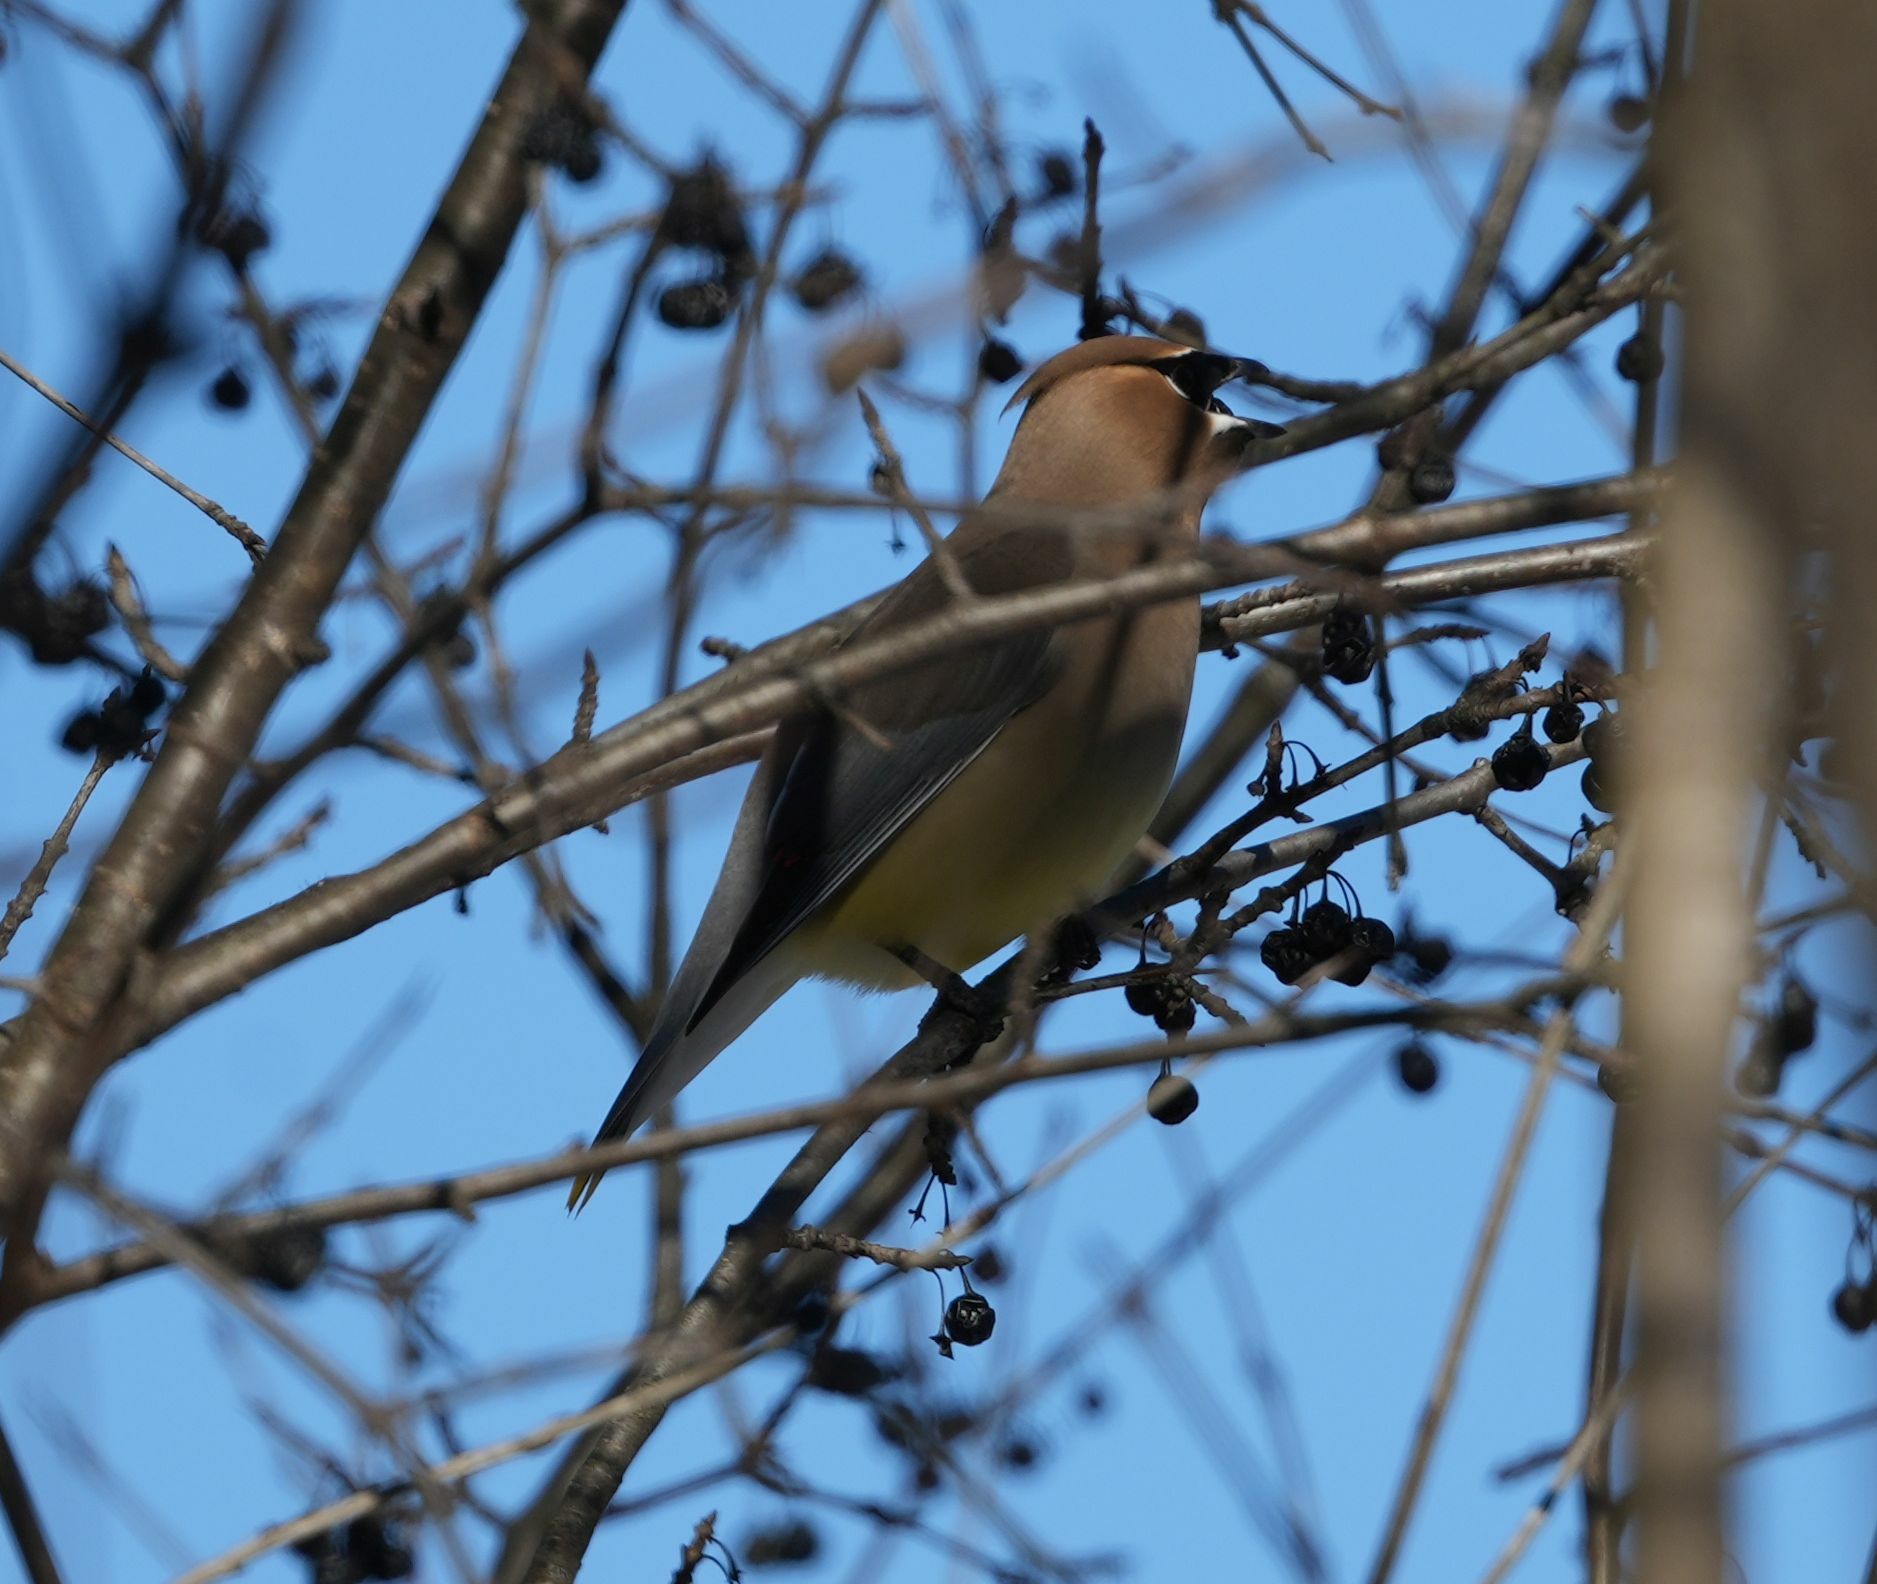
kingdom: Animalia
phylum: Chordata
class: Aves
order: Passeriformes
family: Bombycillidae
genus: Bombycilla
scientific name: Bombycilla cedrorum
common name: Cedar waxwing
